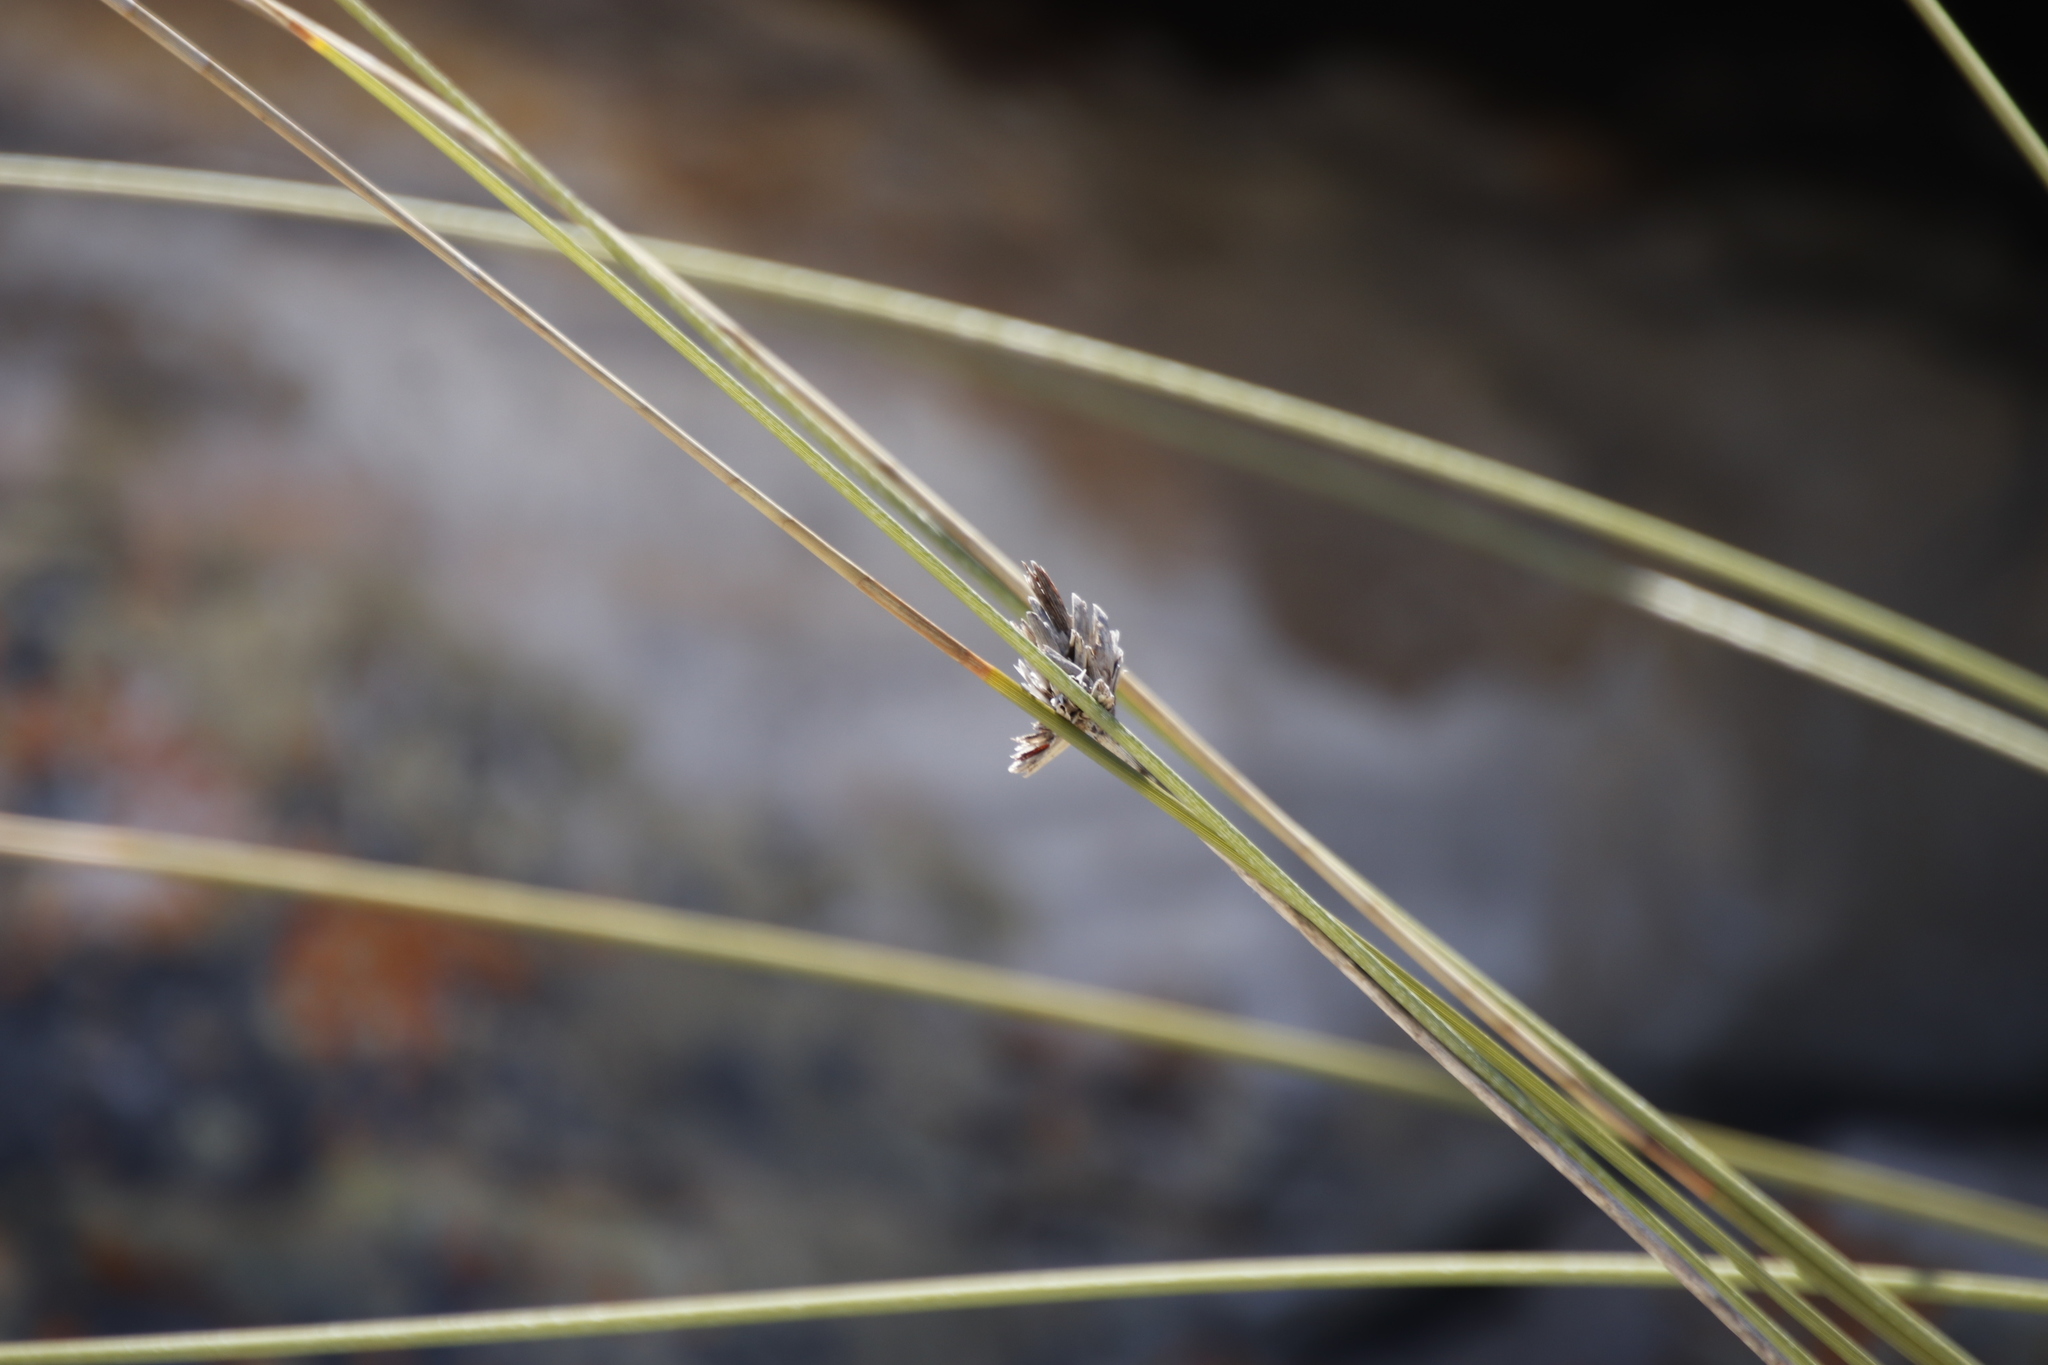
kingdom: Plantae
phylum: Tracheophyta
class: Liliopsida
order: Asparagales
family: Iridaceae
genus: Bobartia
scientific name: Bobartia indica
